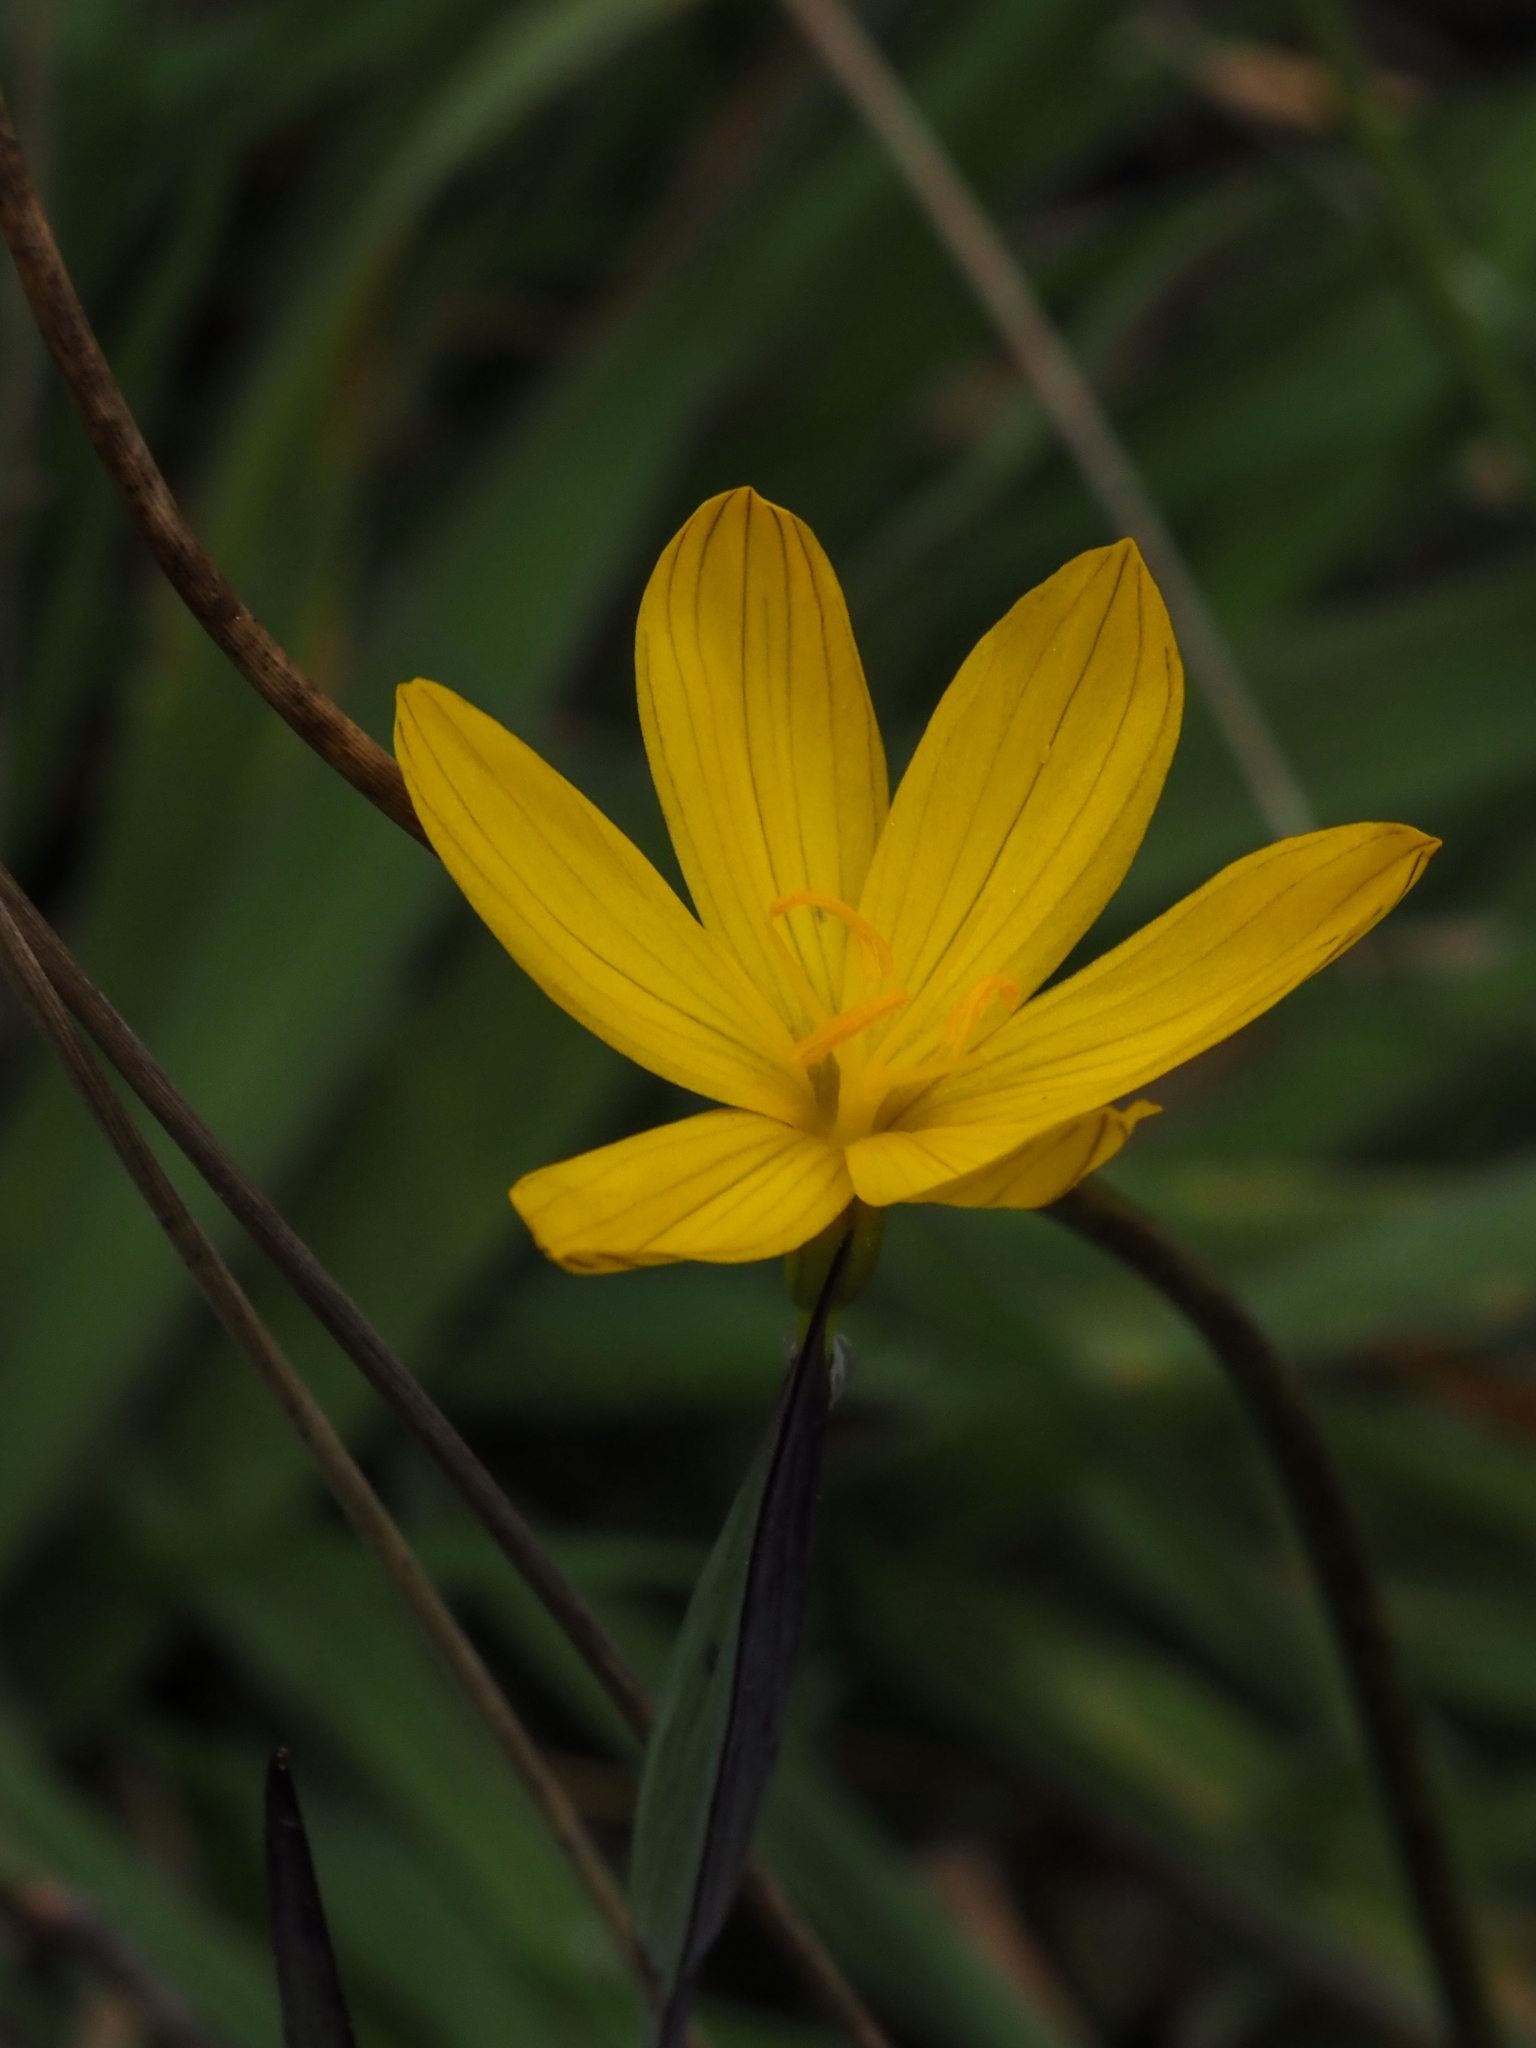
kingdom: Plantae
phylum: Tracheophyta
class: Liliopsida
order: Asparagales
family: Iridaceae
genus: Sisyrinchium
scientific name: Sisyrinchium californicum
